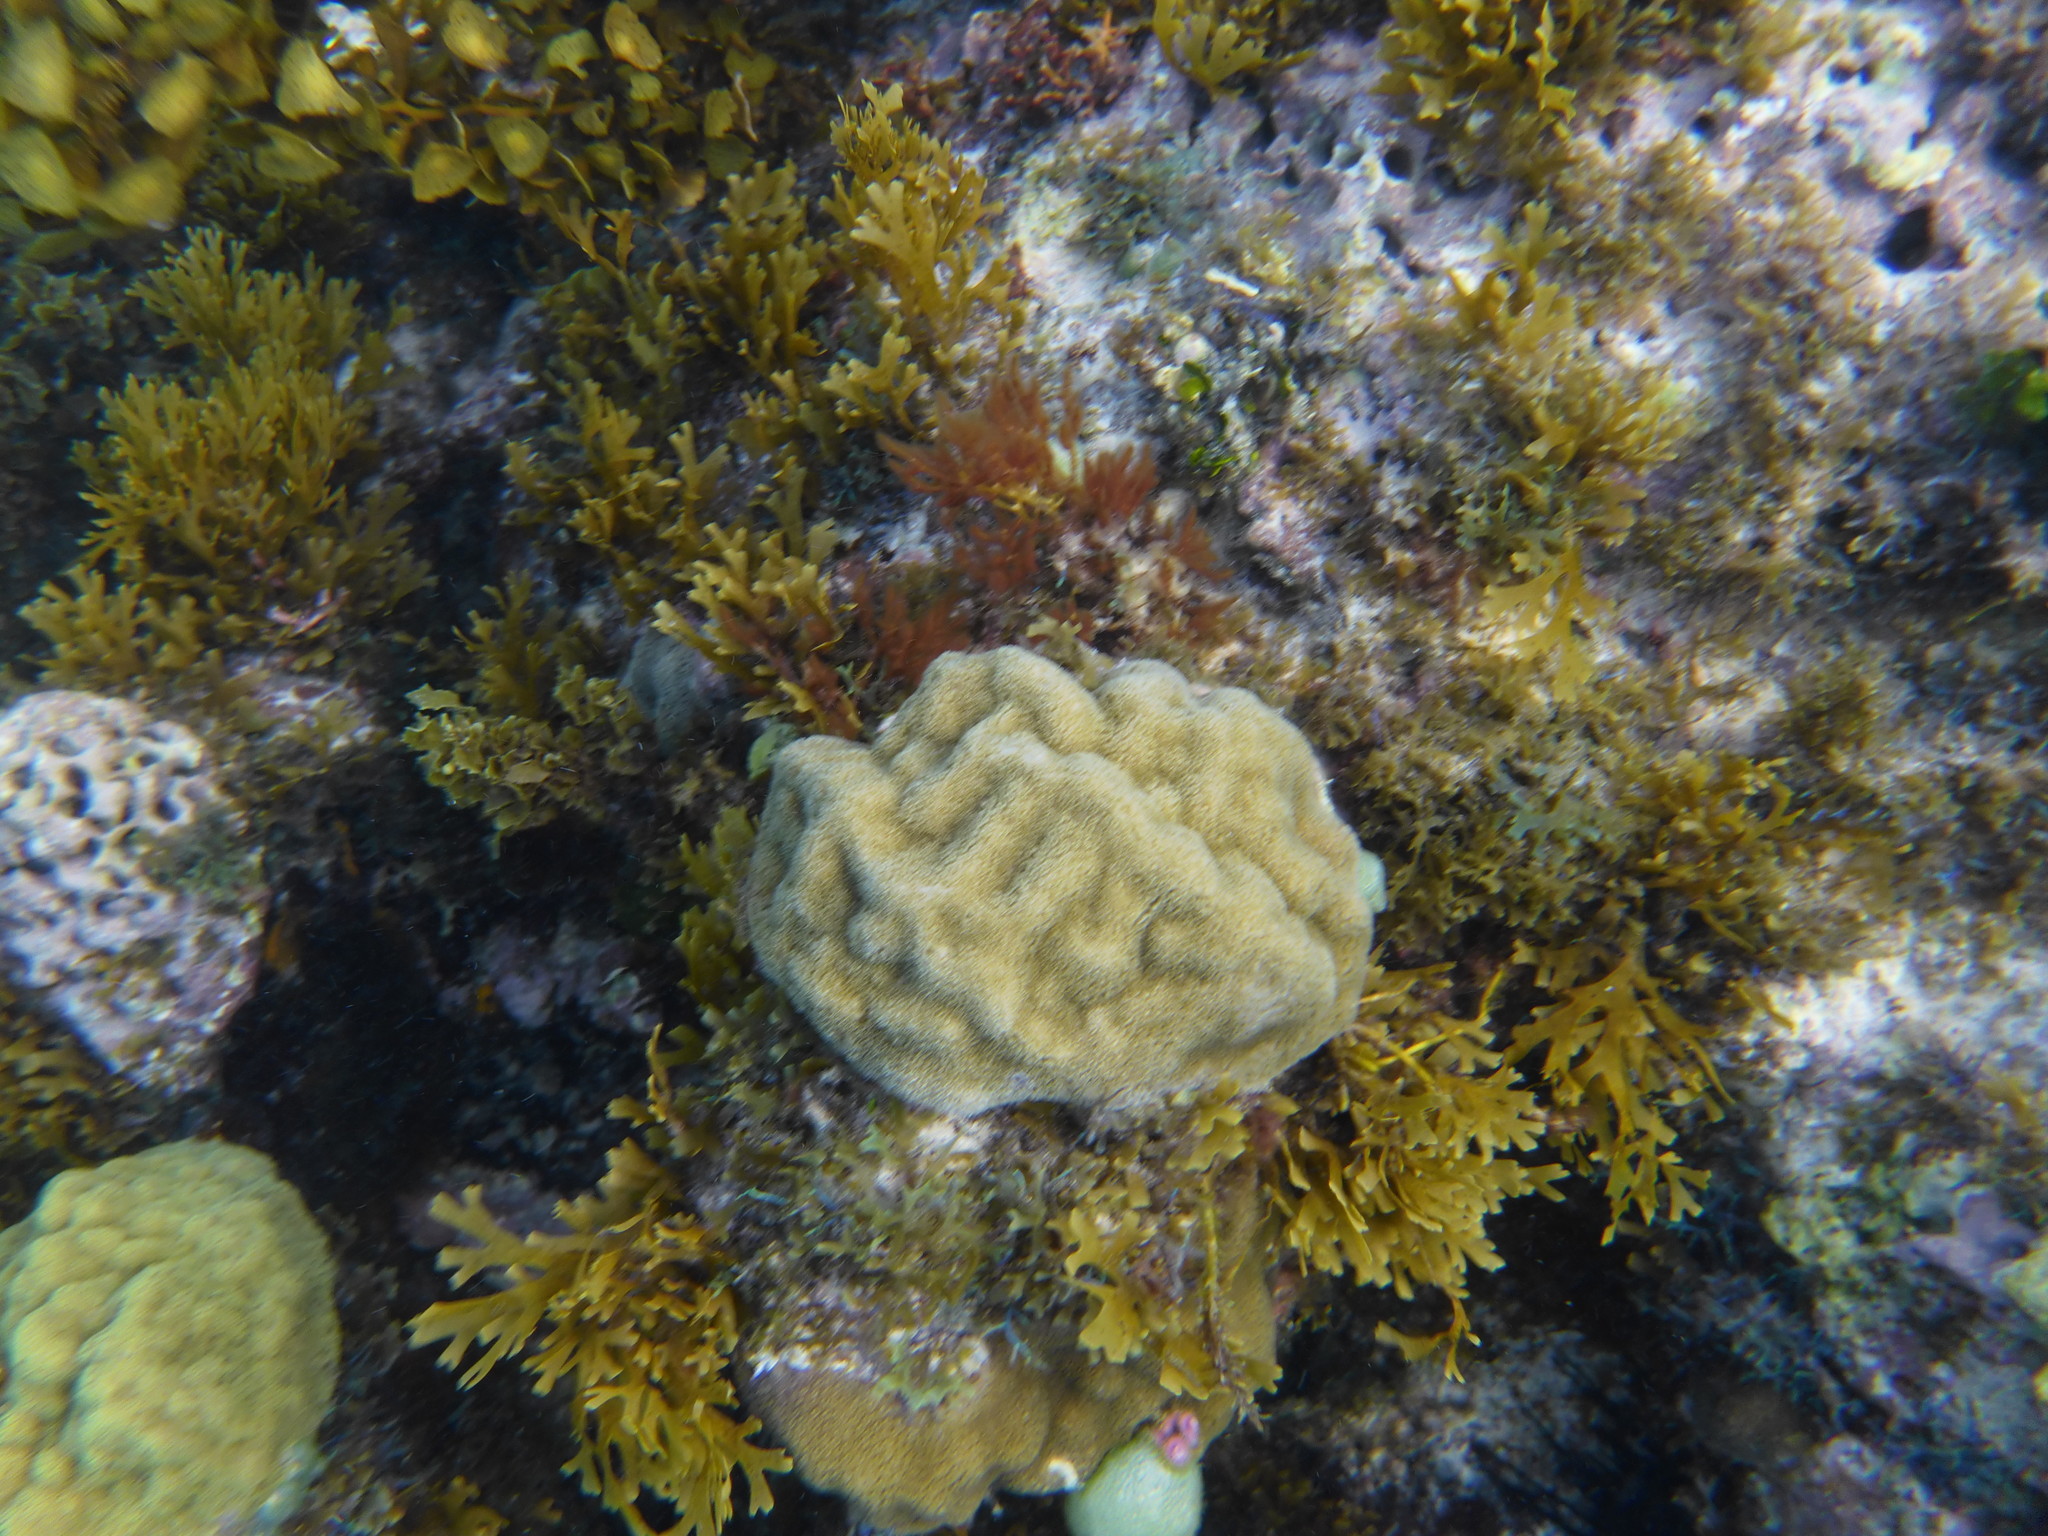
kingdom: Animalia
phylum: Cnidaria
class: Anthozoa
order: Scleractinia
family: Poritidae
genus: Porites
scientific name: Porites astreoides
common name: Mustard hill coral
